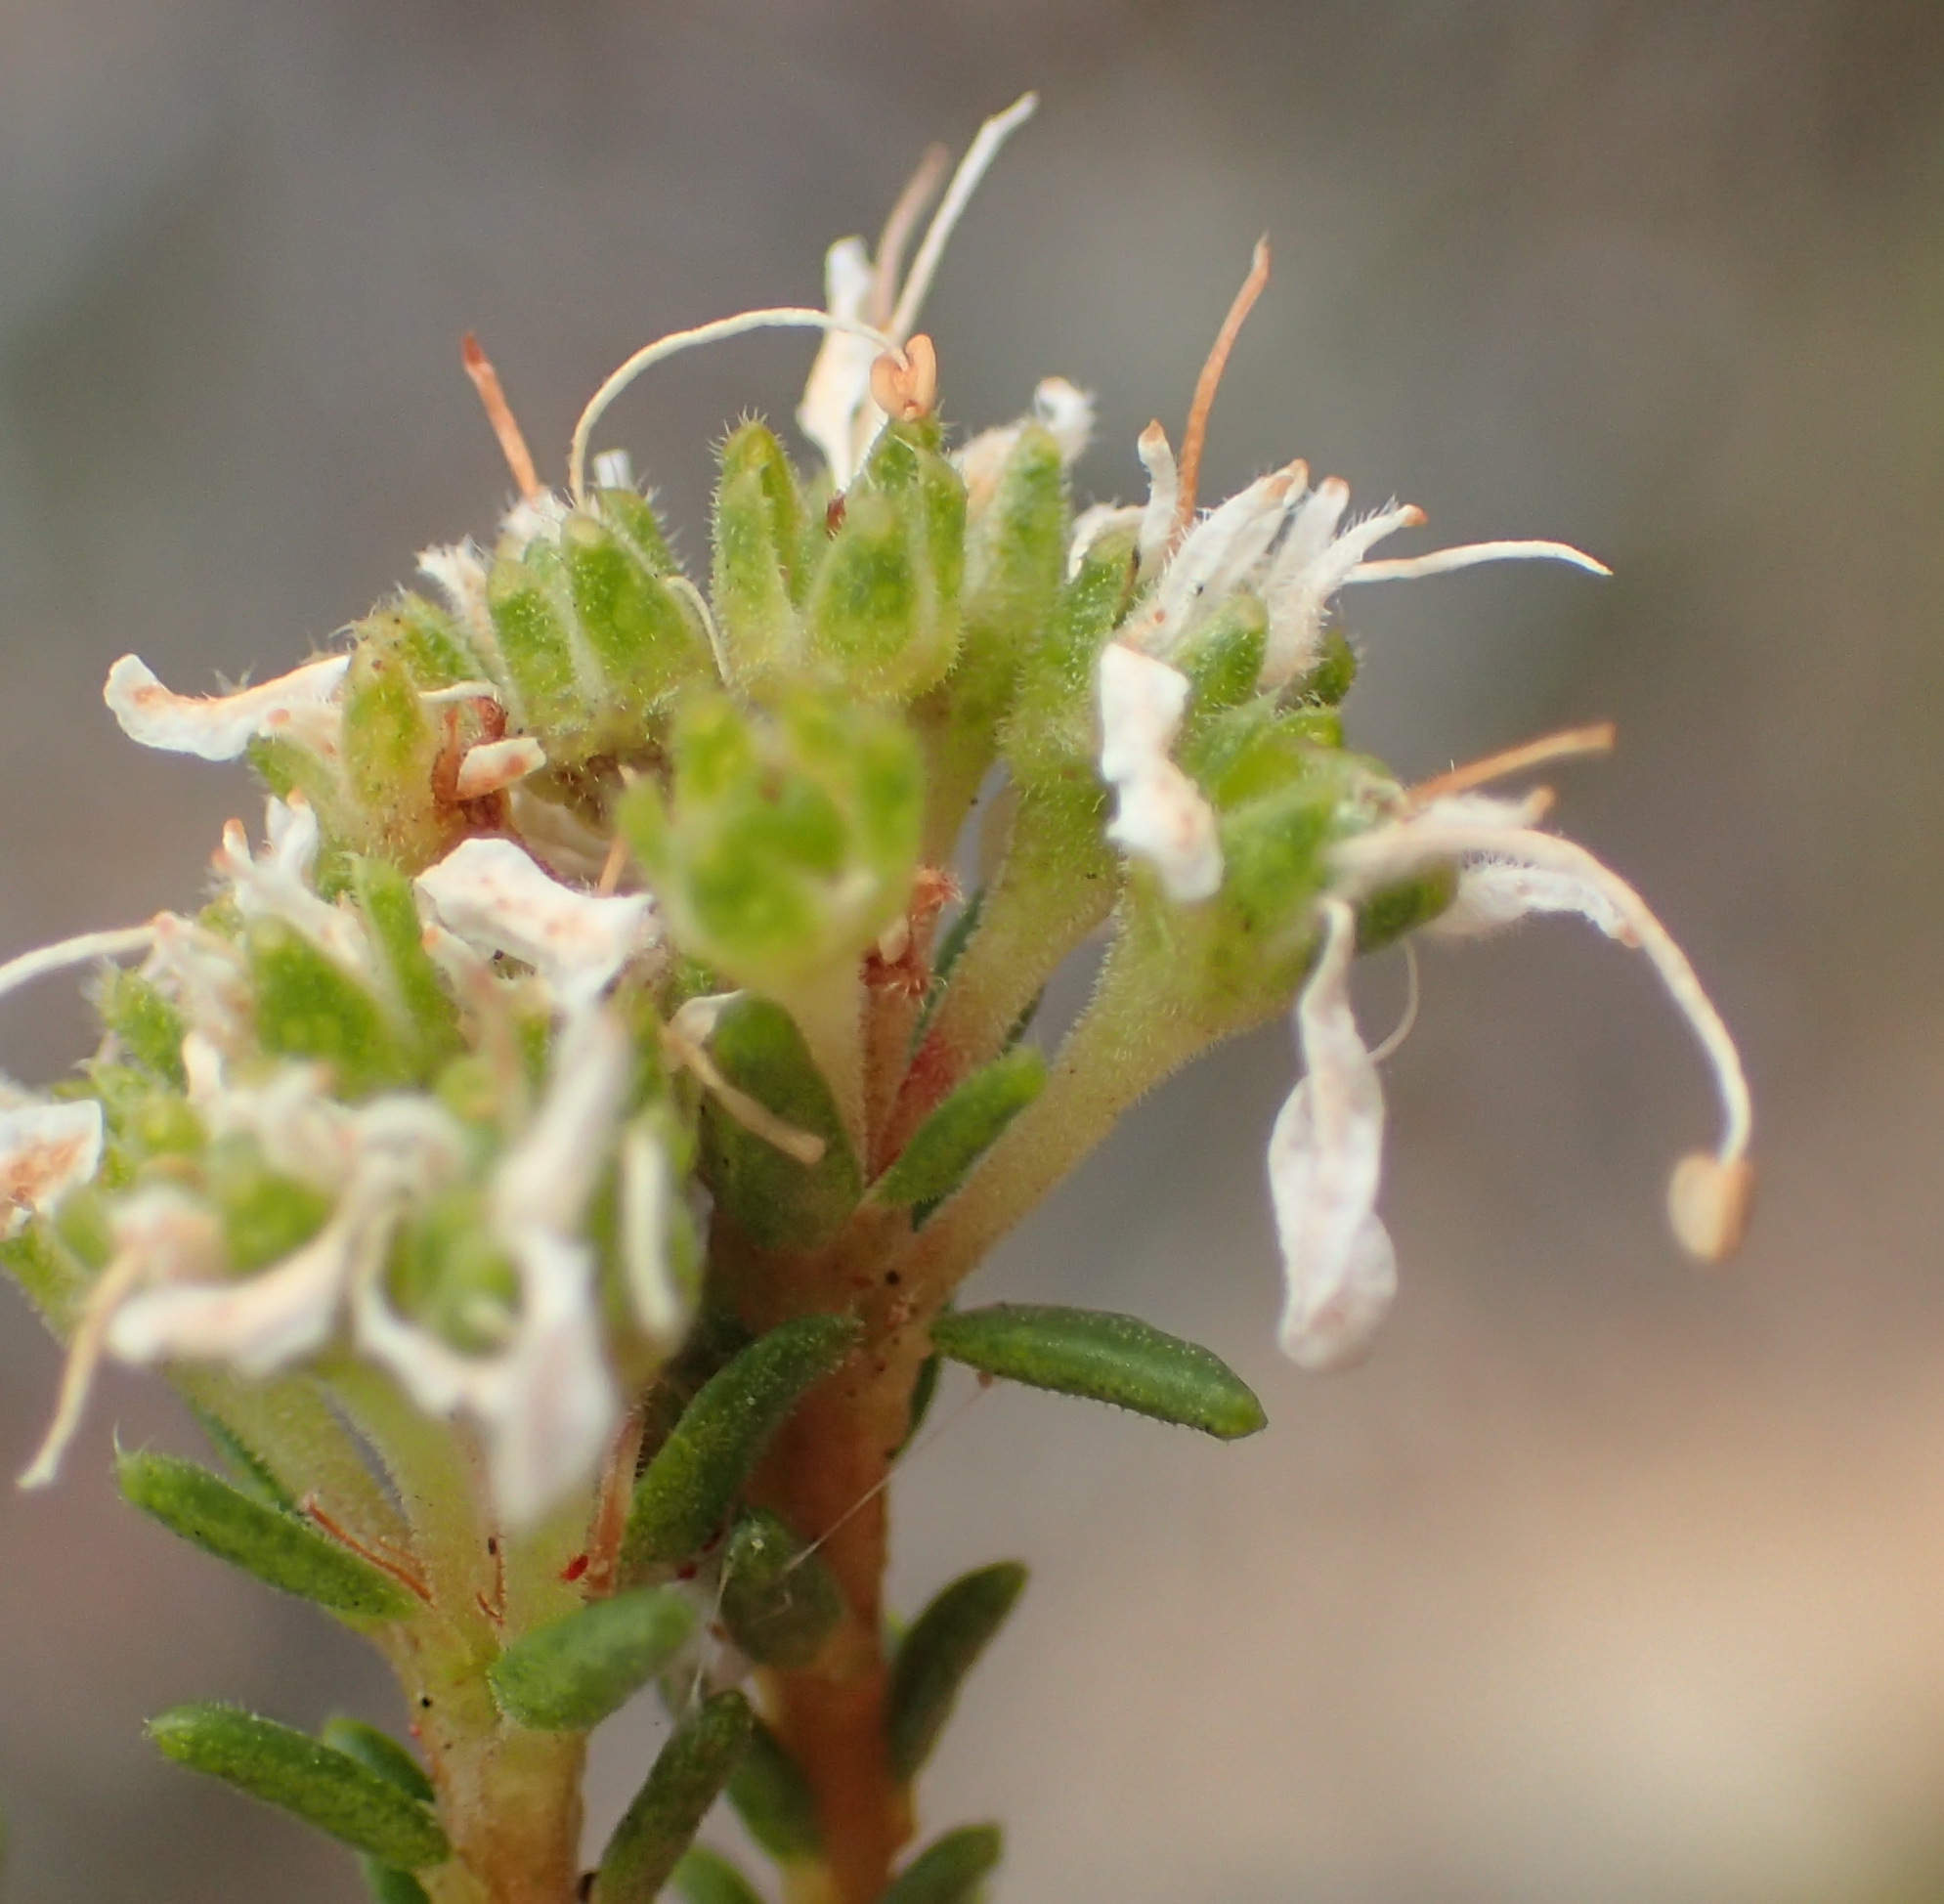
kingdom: Plantae
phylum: Tracheophyta
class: Magnoliopsida
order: Sapindales
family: Rutaceae
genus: Agathosma
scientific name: Agathosma capensis
